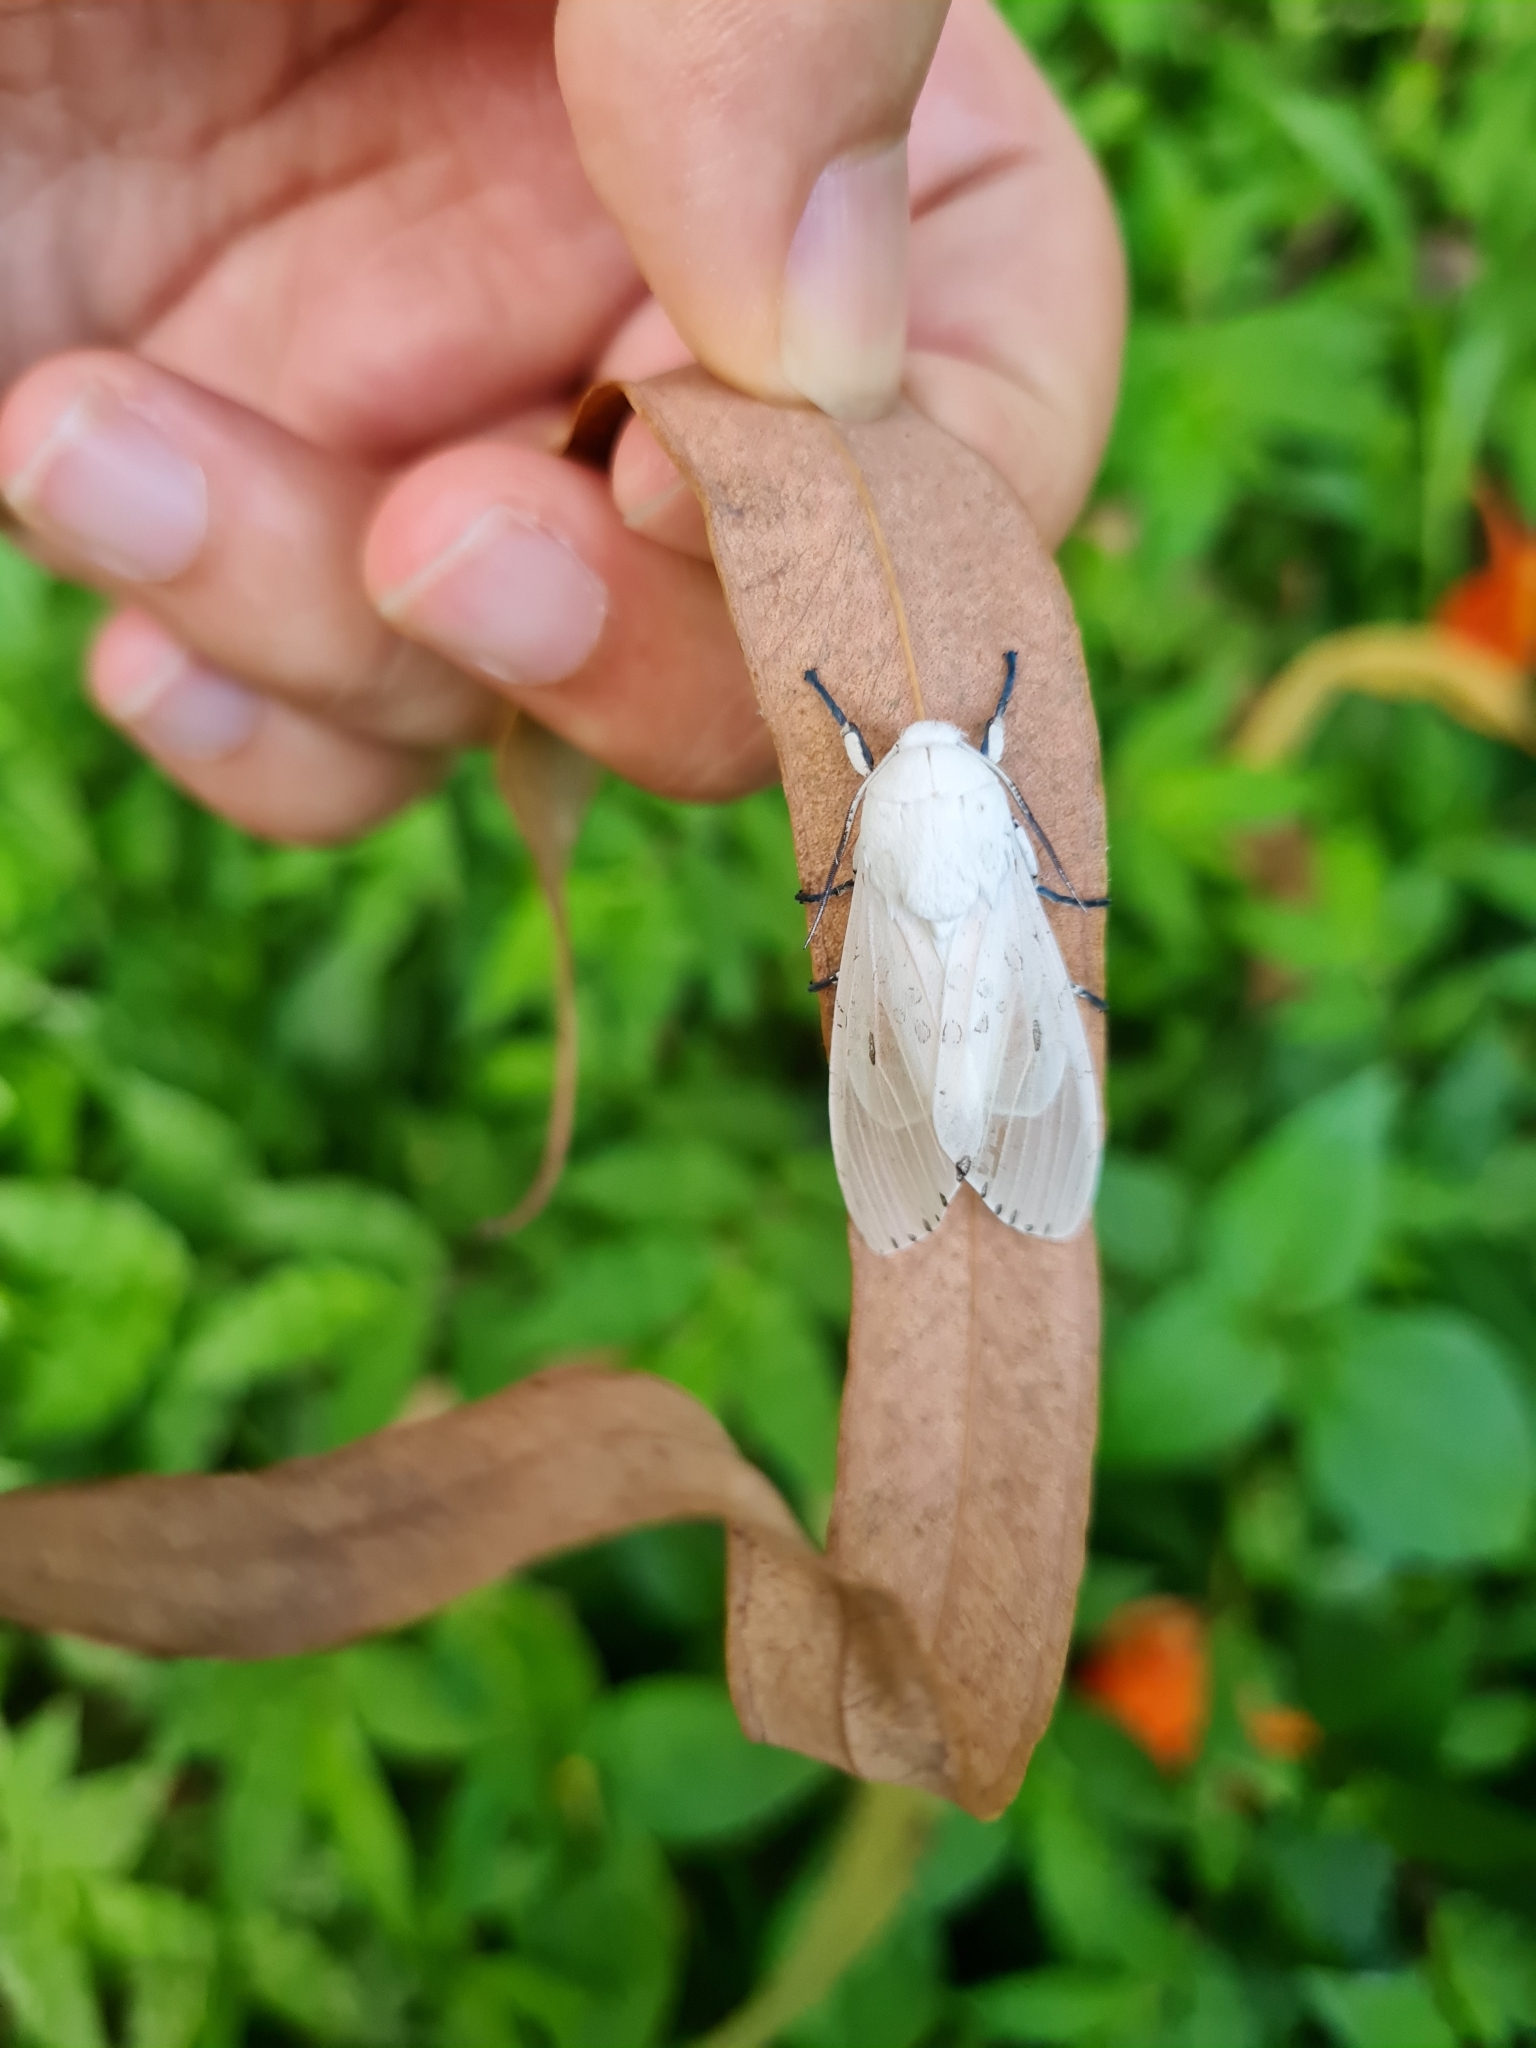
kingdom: Animalia
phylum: Arthropoda
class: Insecta
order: Lepidoptera
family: Erebidae
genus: Hypercompe
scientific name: Hypercompe muzina
